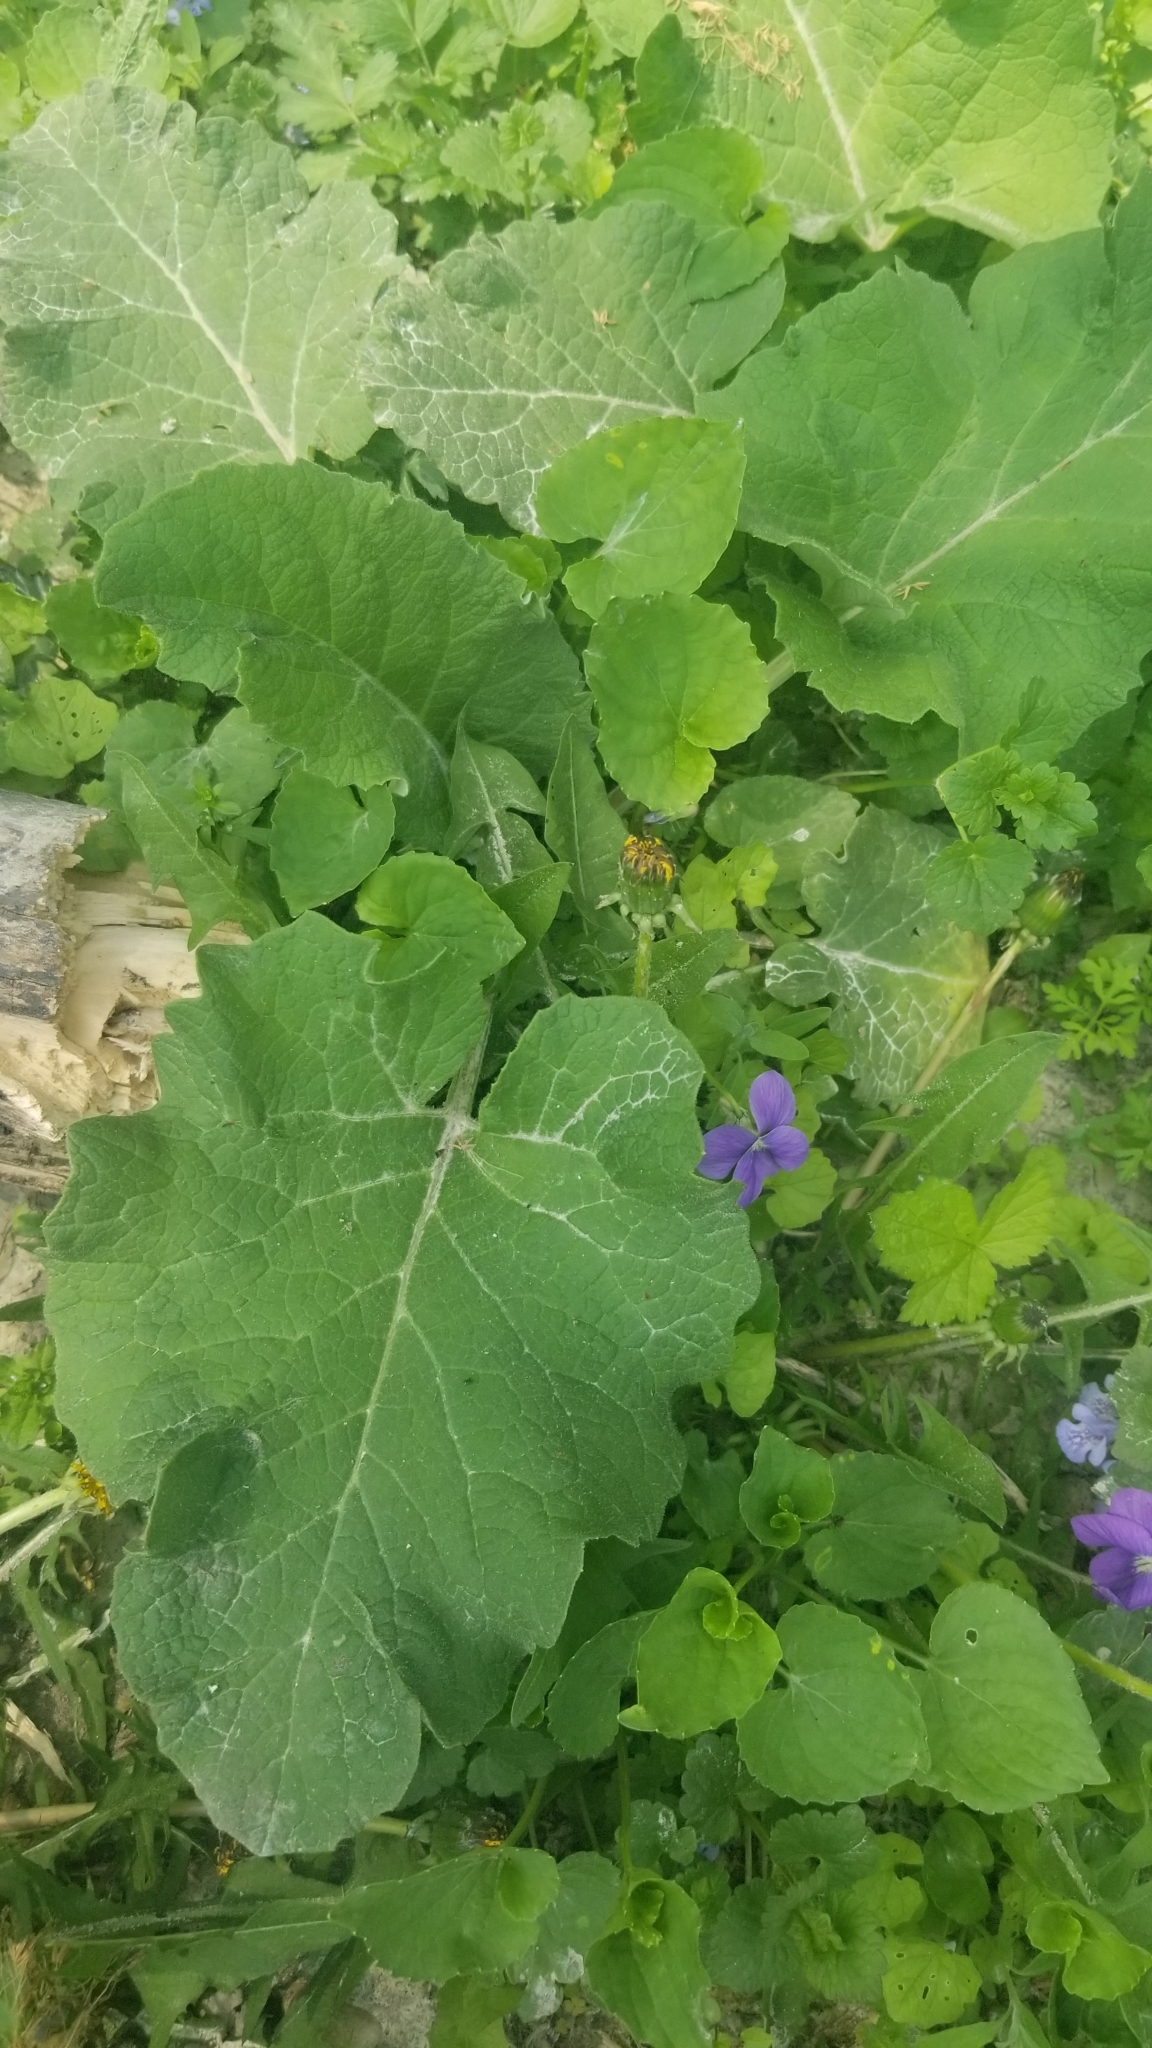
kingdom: Plantae
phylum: Tracheophyta
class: Magnoliopsida
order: Asterales
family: Asteraceae
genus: Arctium
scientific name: Arctium
